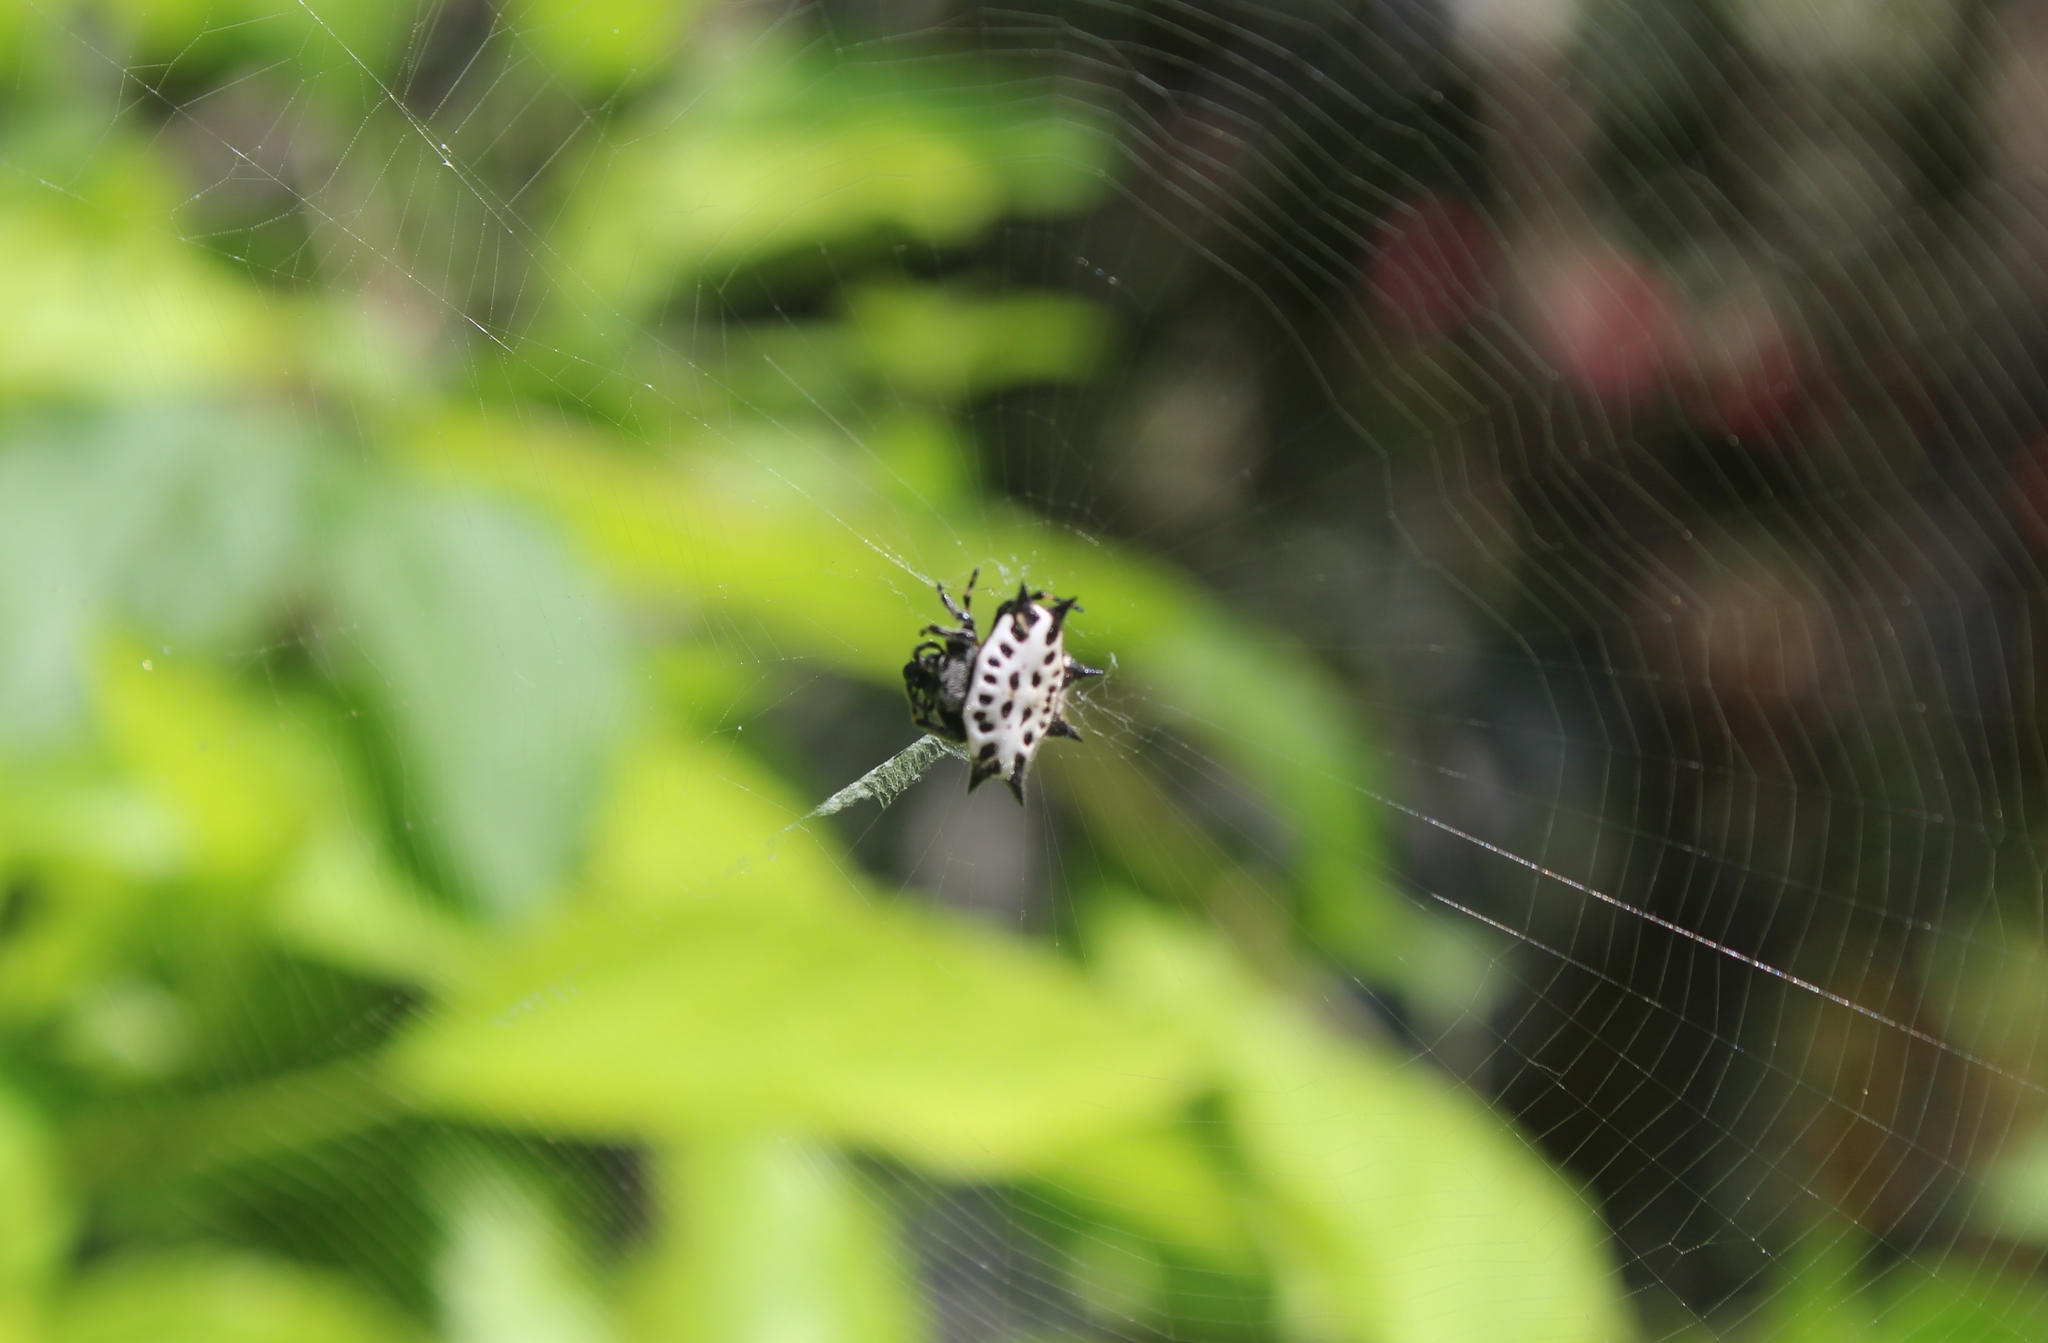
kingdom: Animalia
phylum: Arthropoda
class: Arachnida
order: Araneae
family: Araneidae
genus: Gasteracantha
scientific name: Gasteracantha cancriformis
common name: Orb weavers
